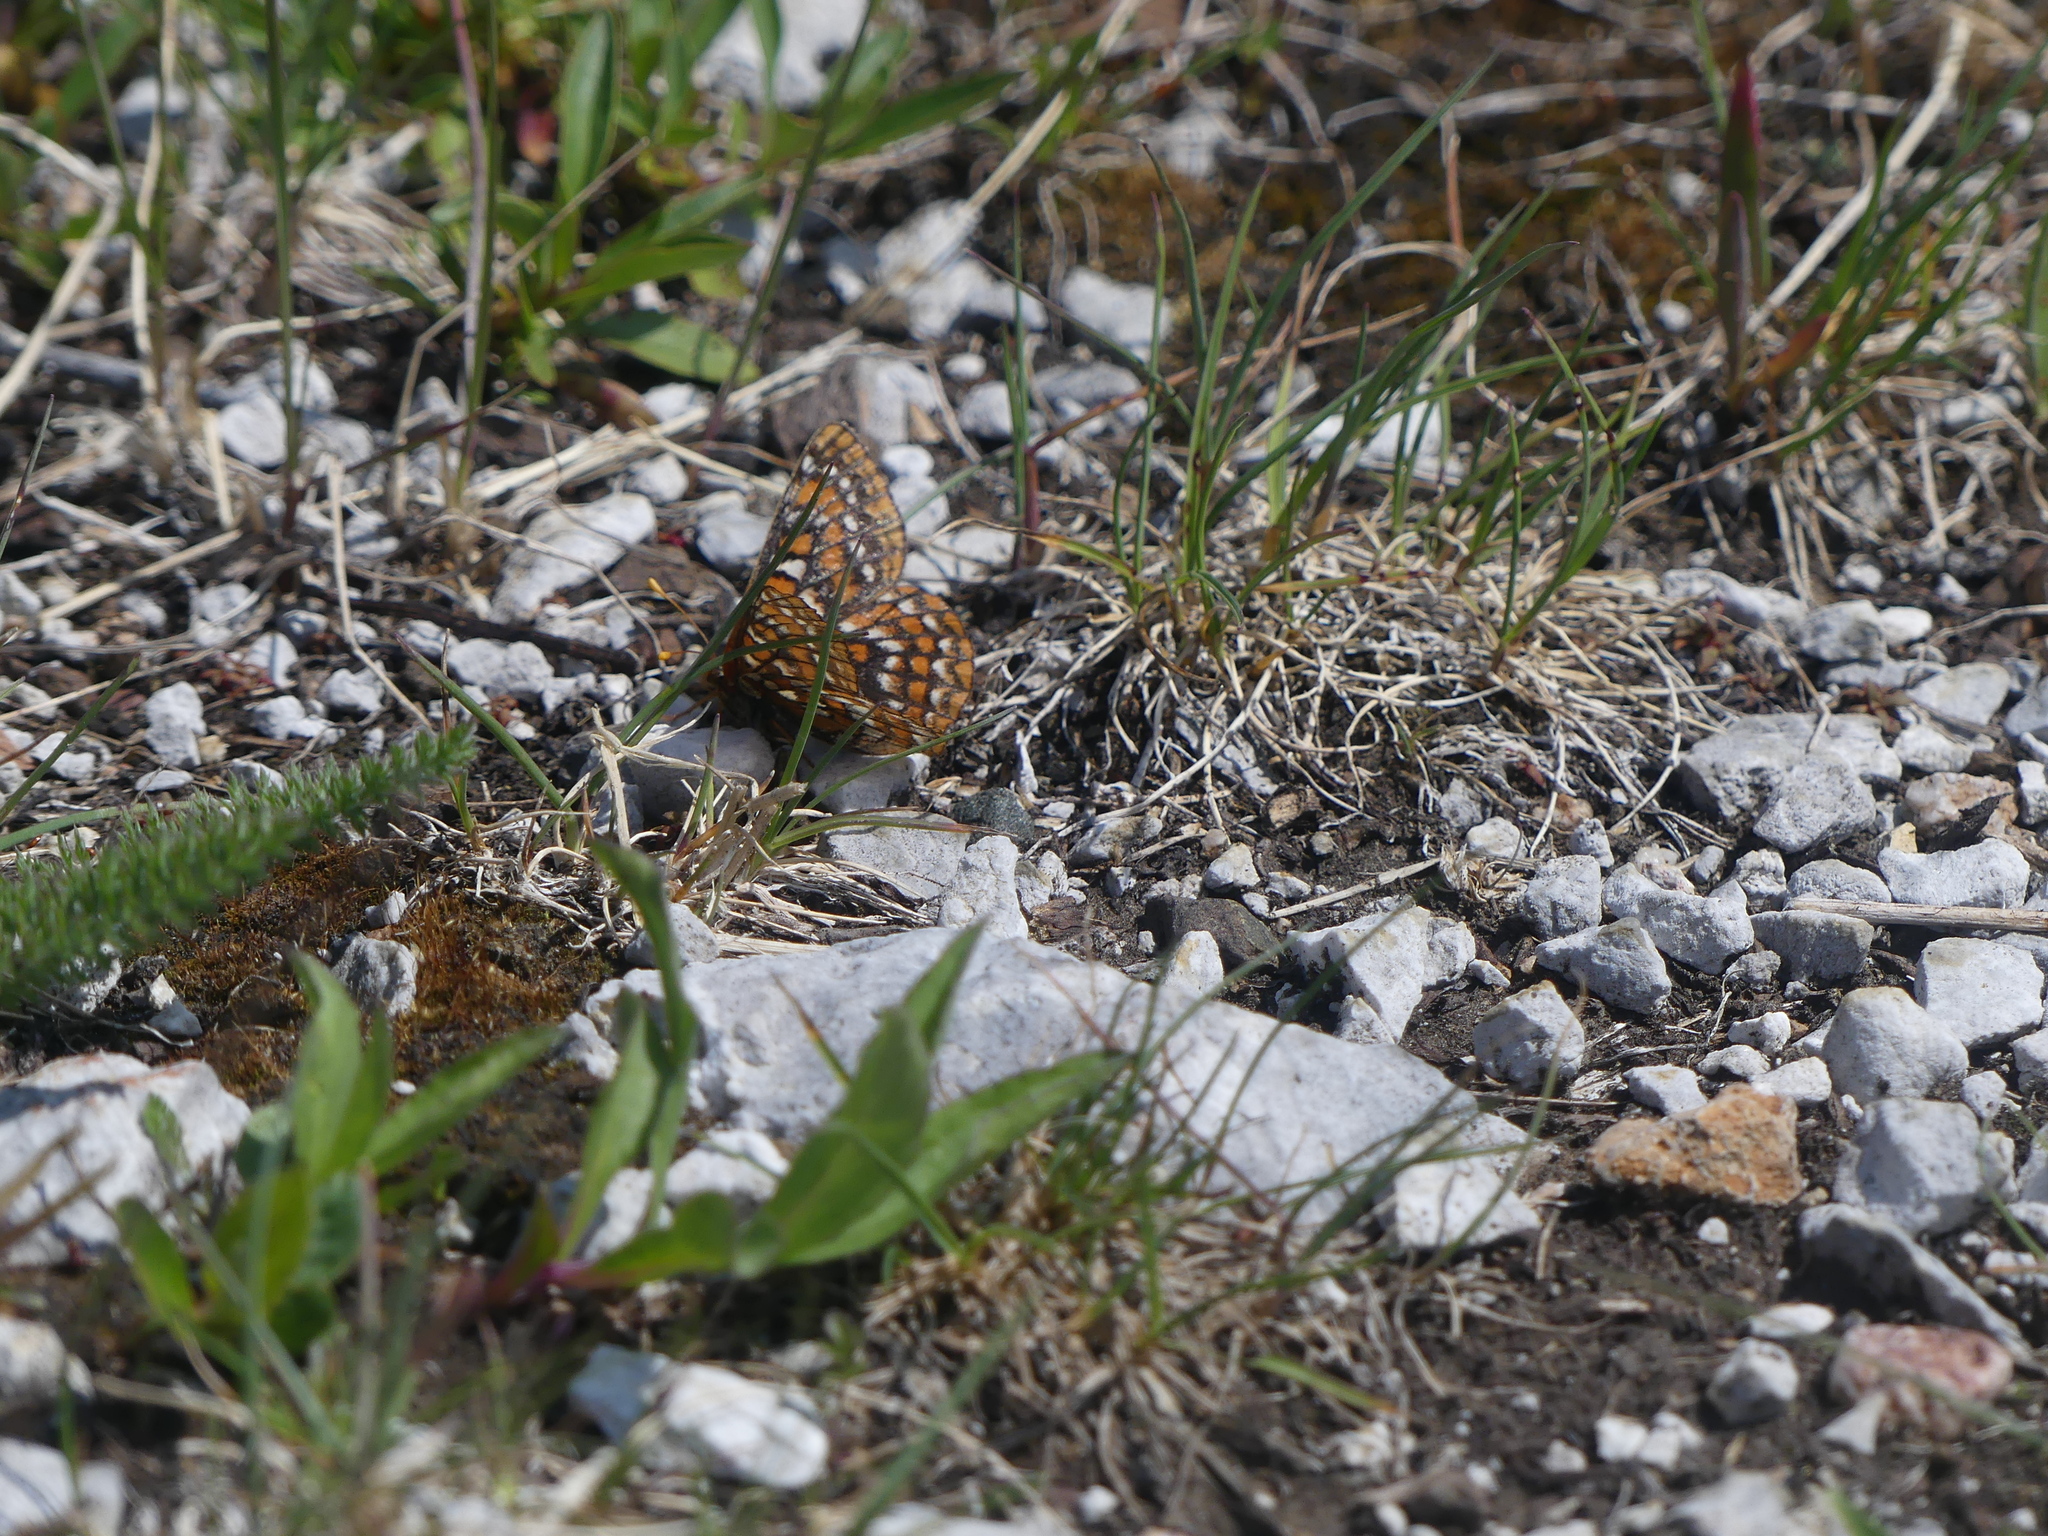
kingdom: Animalia
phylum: Arthropoda
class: Insecta
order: Lepidoptera
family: Nymphalidae
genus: Occidryas
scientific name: Occidryas editha
